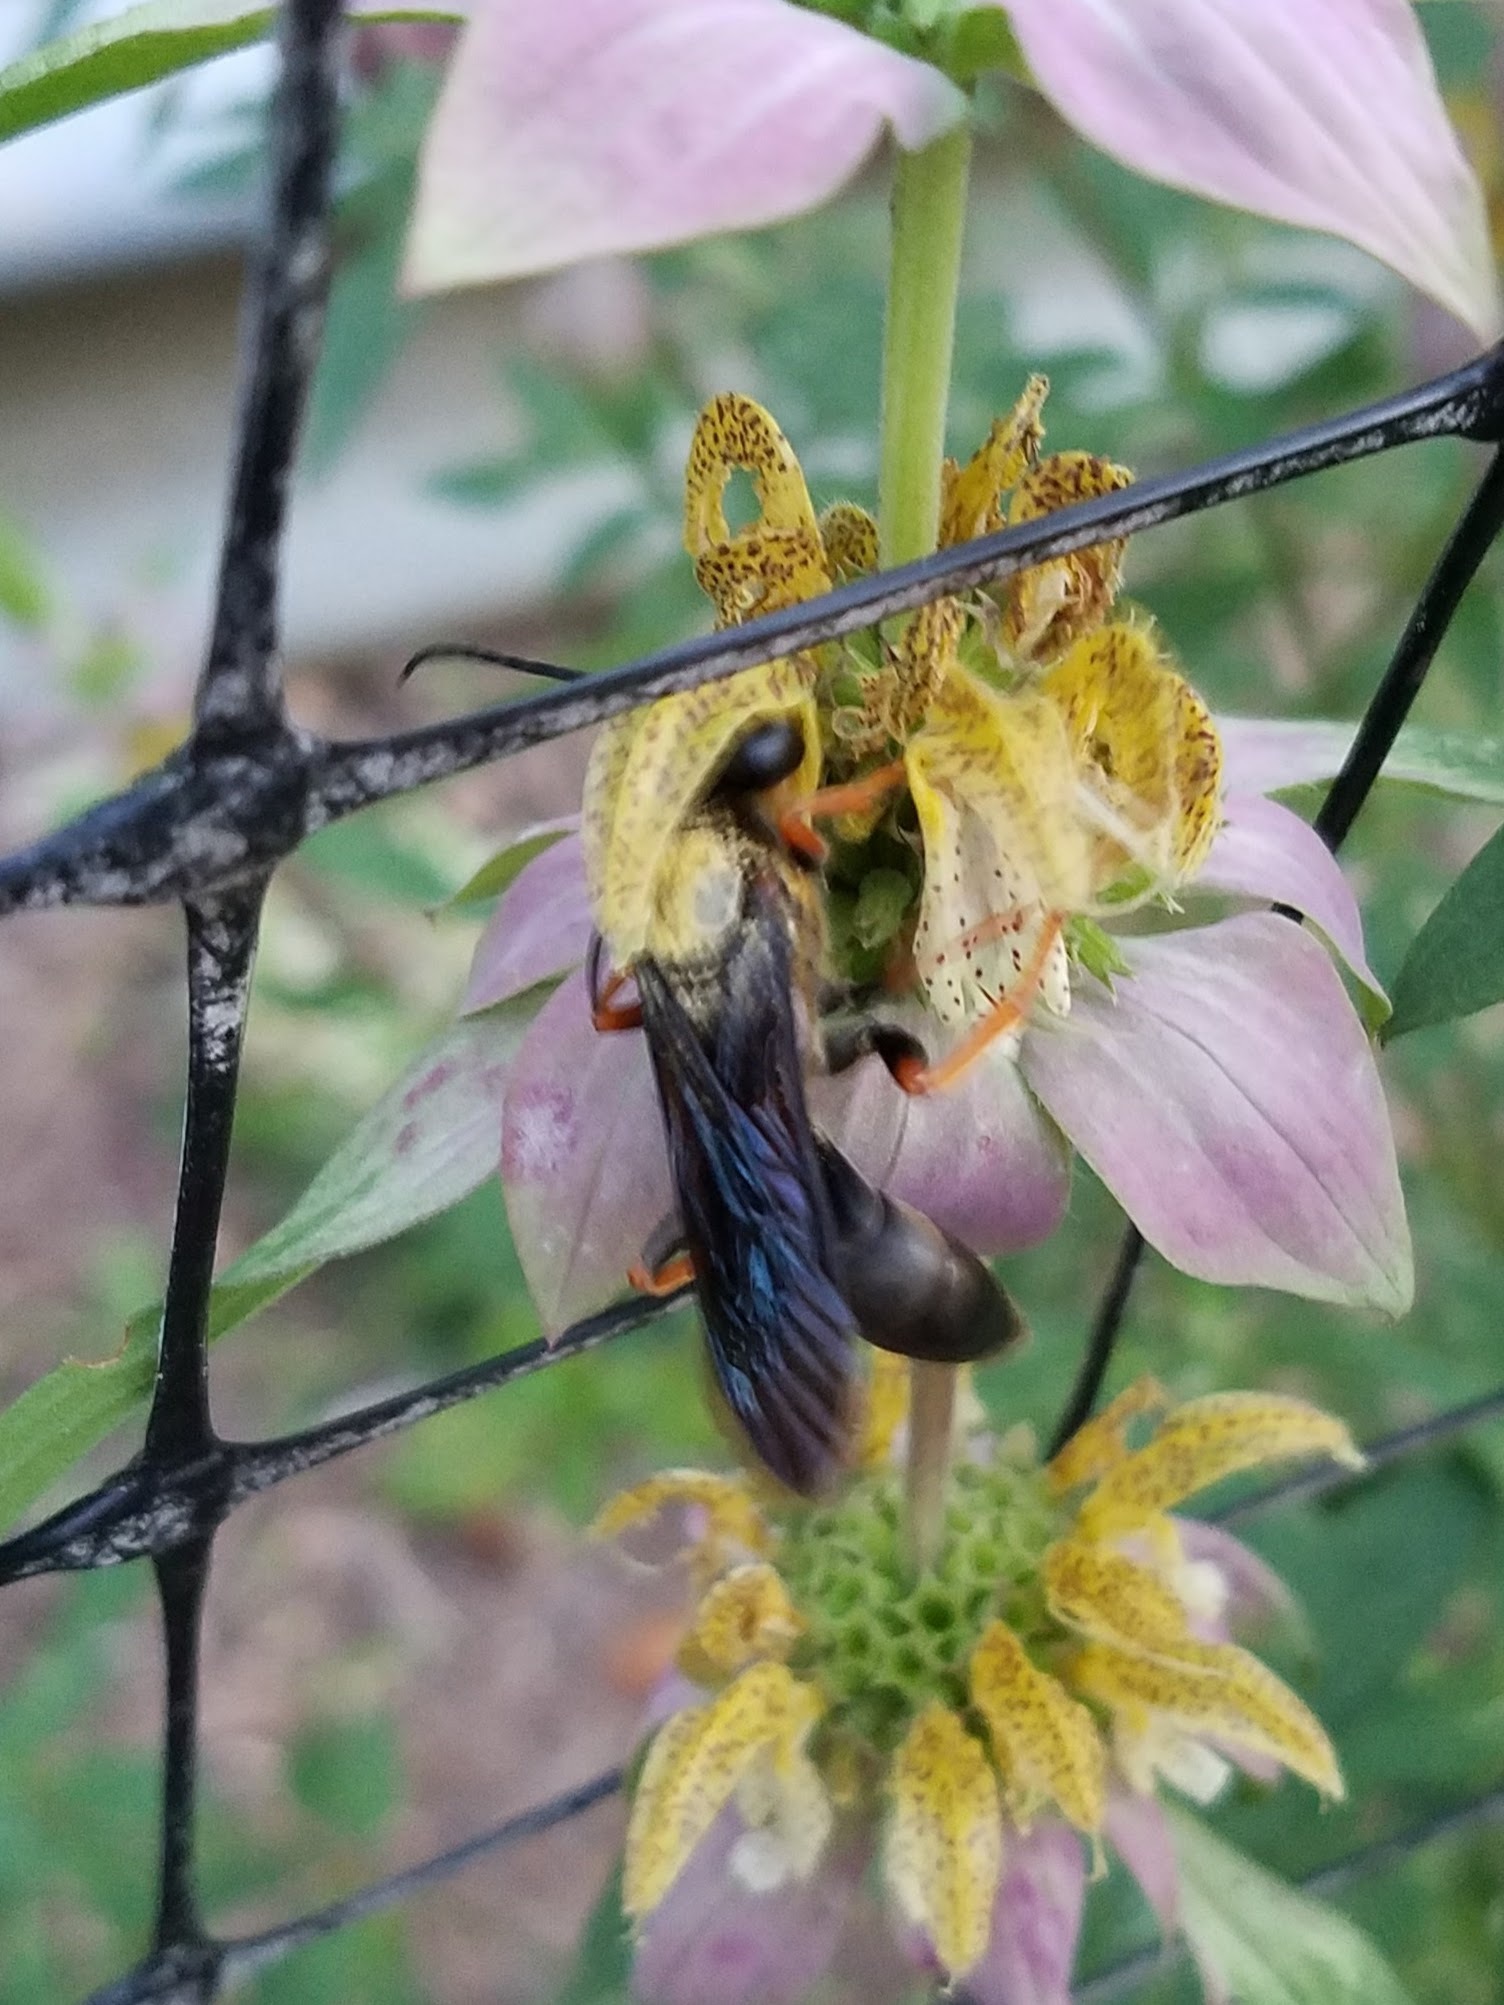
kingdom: Animalia
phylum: Arthropoda
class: Insecta
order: Hymenoptera
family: Sphecidae
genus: Sphex
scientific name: Sphex nudus
